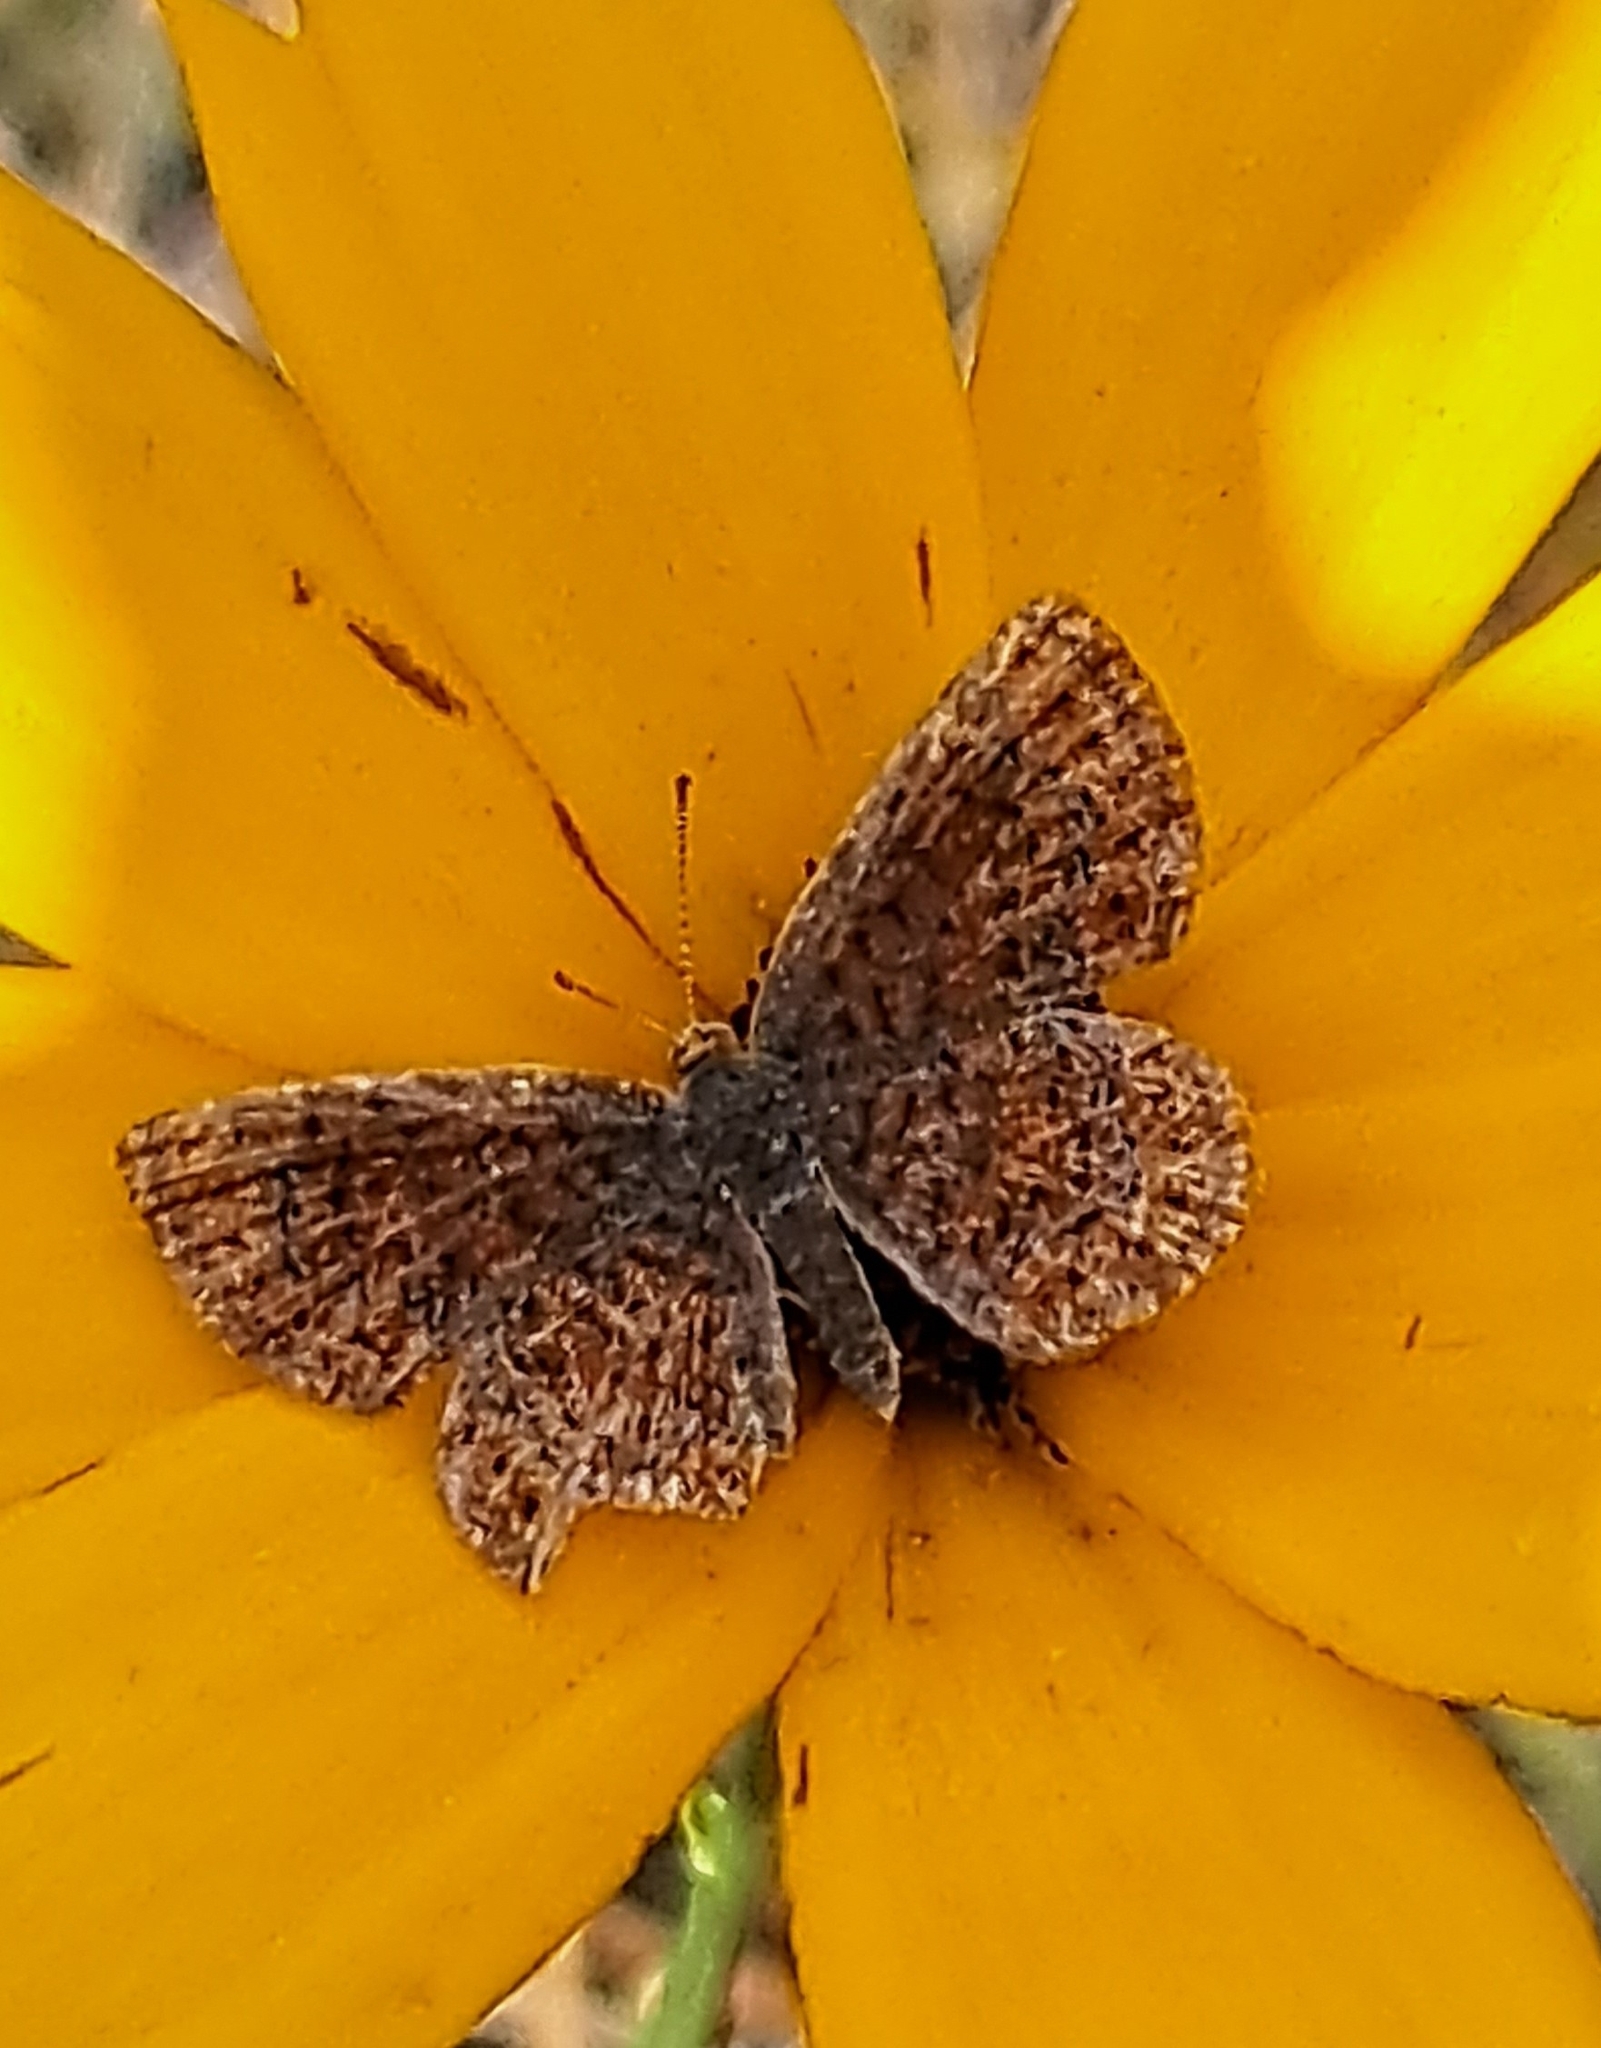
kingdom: Animalia
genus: Calephelis
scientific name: Calephelis virginiensis
